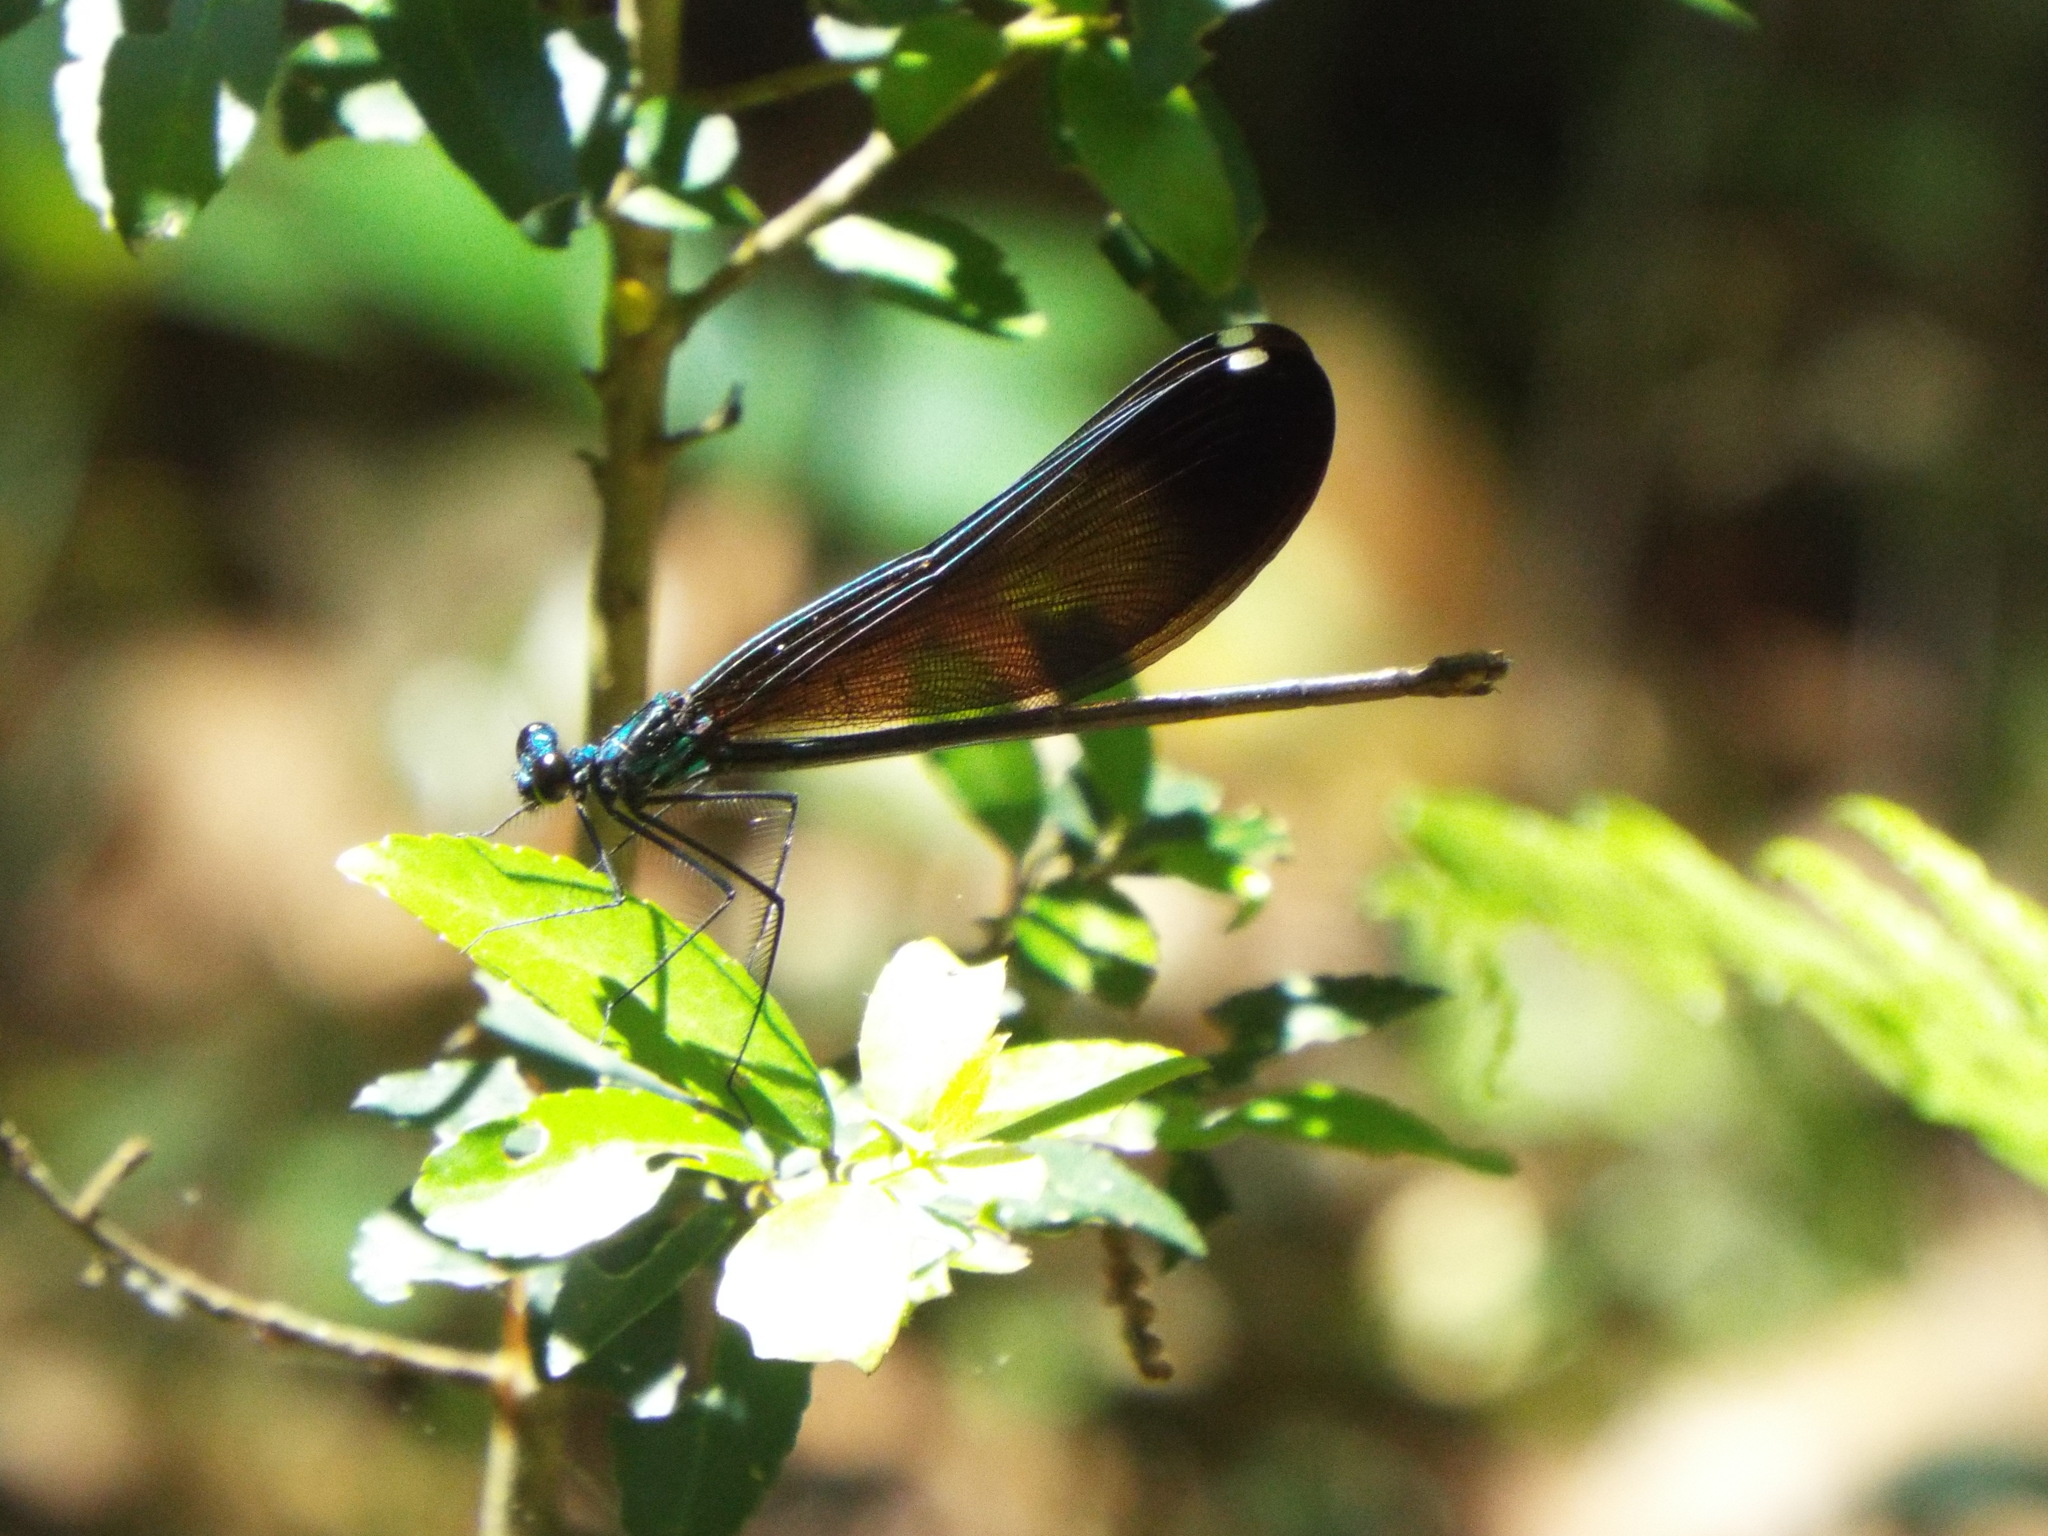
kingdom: Animalia
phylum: Arthropoda
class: Insecta
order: Odonata
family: Calopterygidae
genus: Calopteryx
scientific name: Calopteryx maculata
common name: Ebony jewelwing
